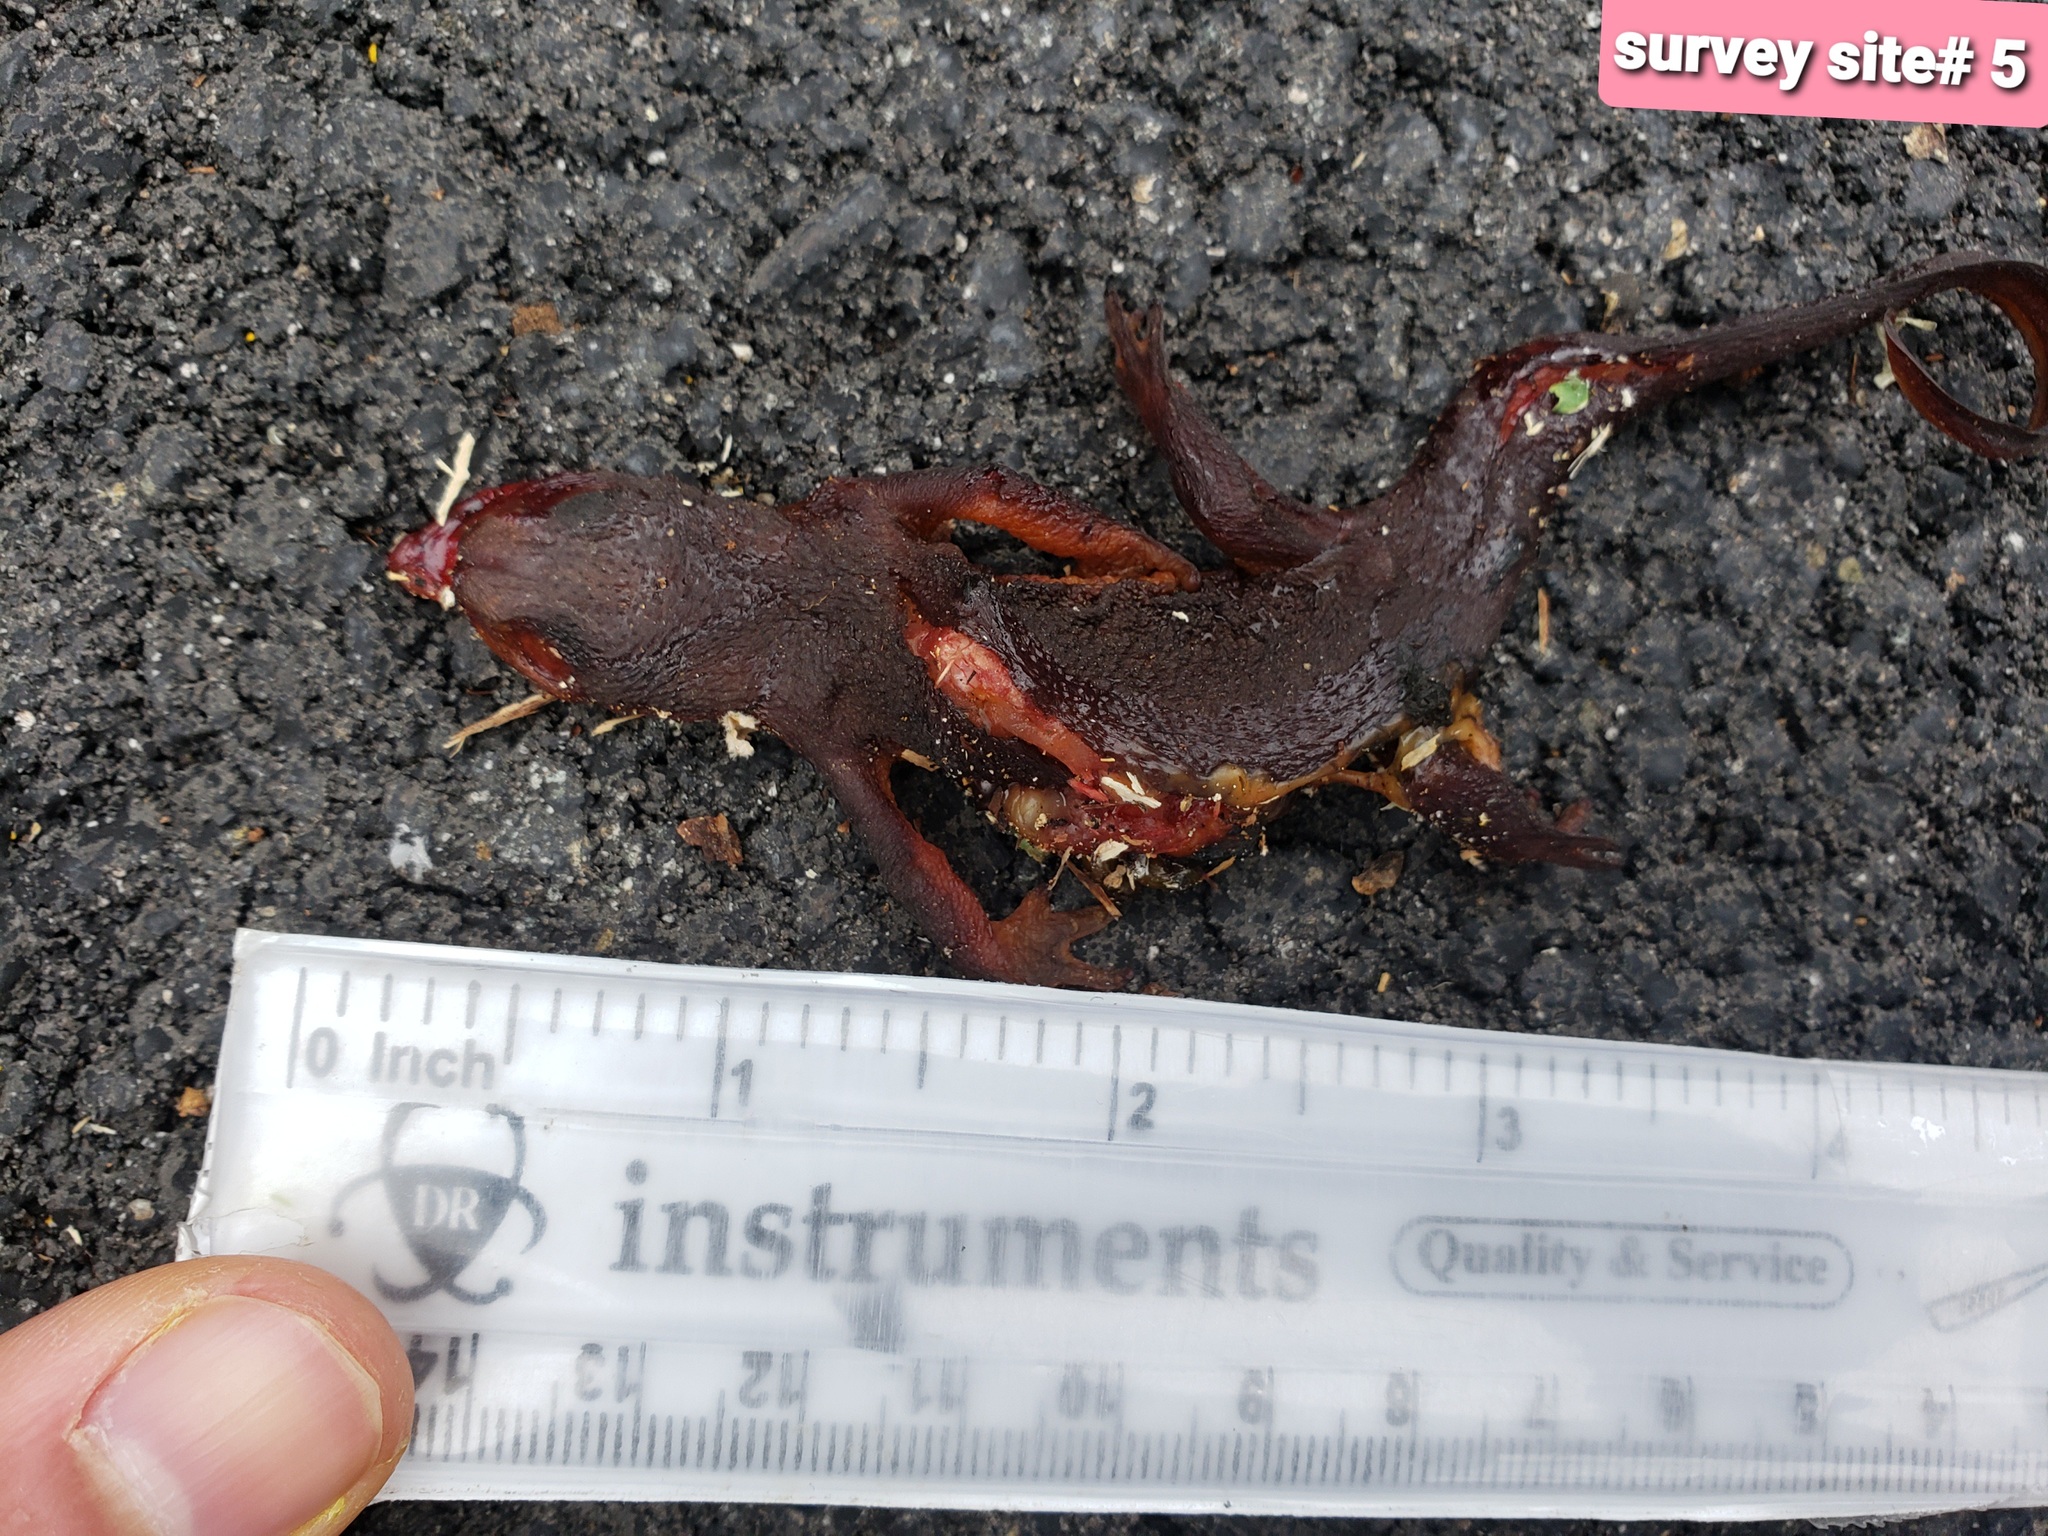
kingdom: Animalia
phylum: Chordata
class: Amphibia
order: Caudata
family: Salamandridae
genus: Taricha
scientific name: Taricha
